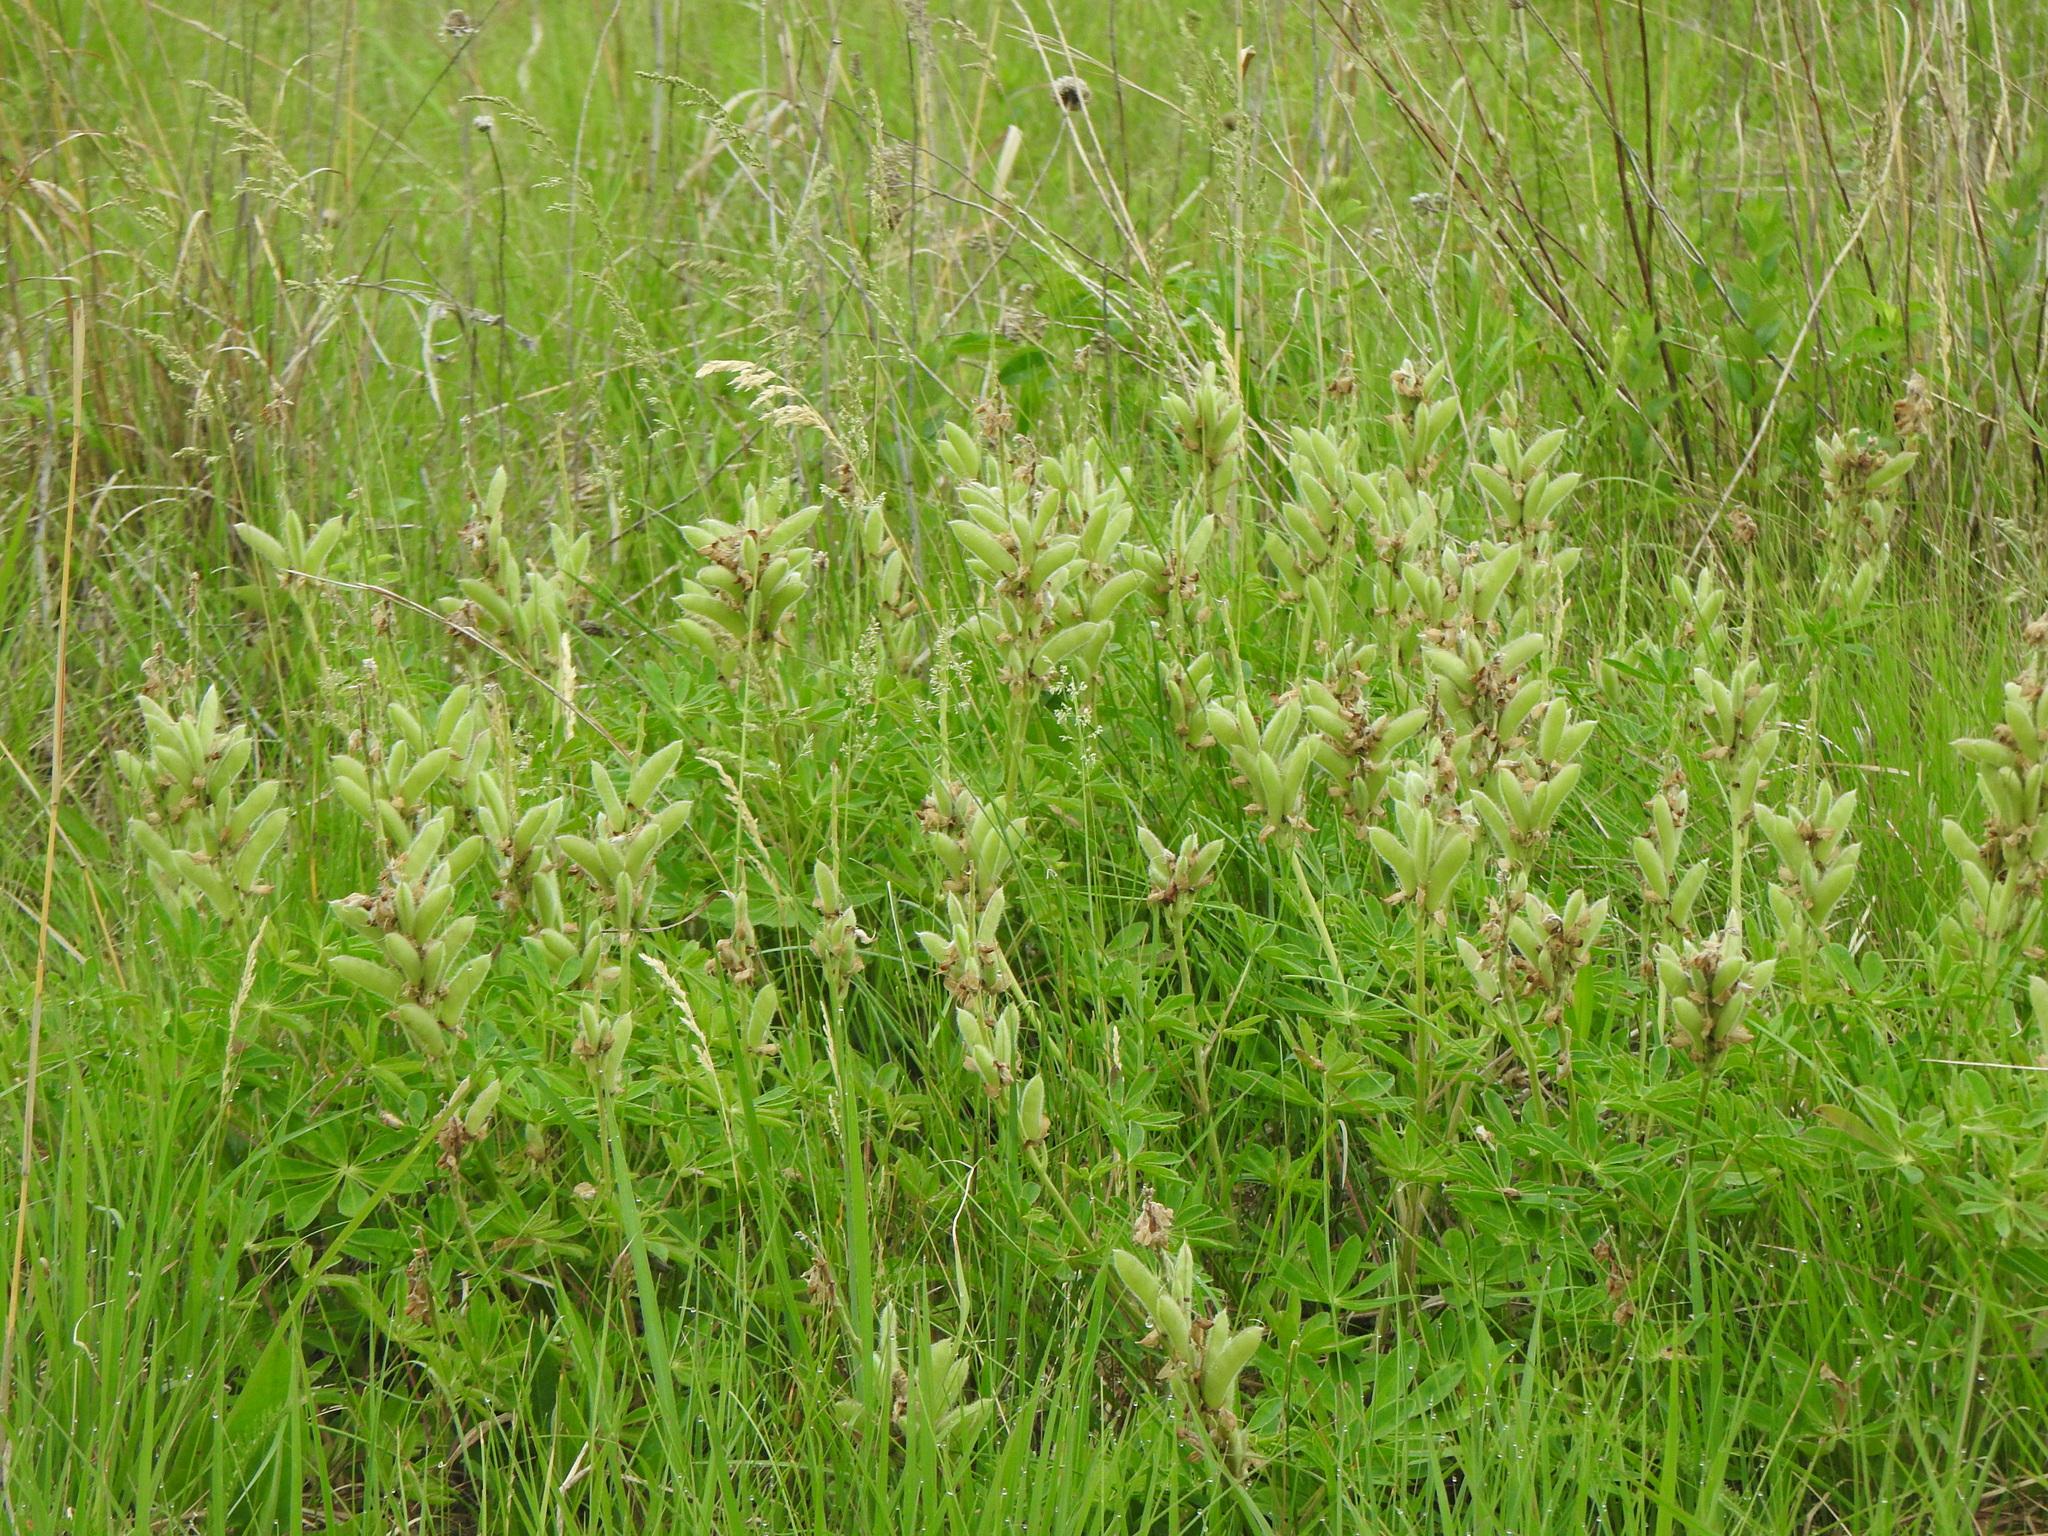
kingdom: Plantae
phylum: Tracheophyta
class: Magnoliopsida
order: Fabales
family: Fabaceae
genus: Lupinus
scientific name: Lupinus perennis
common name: Sundial lupine
